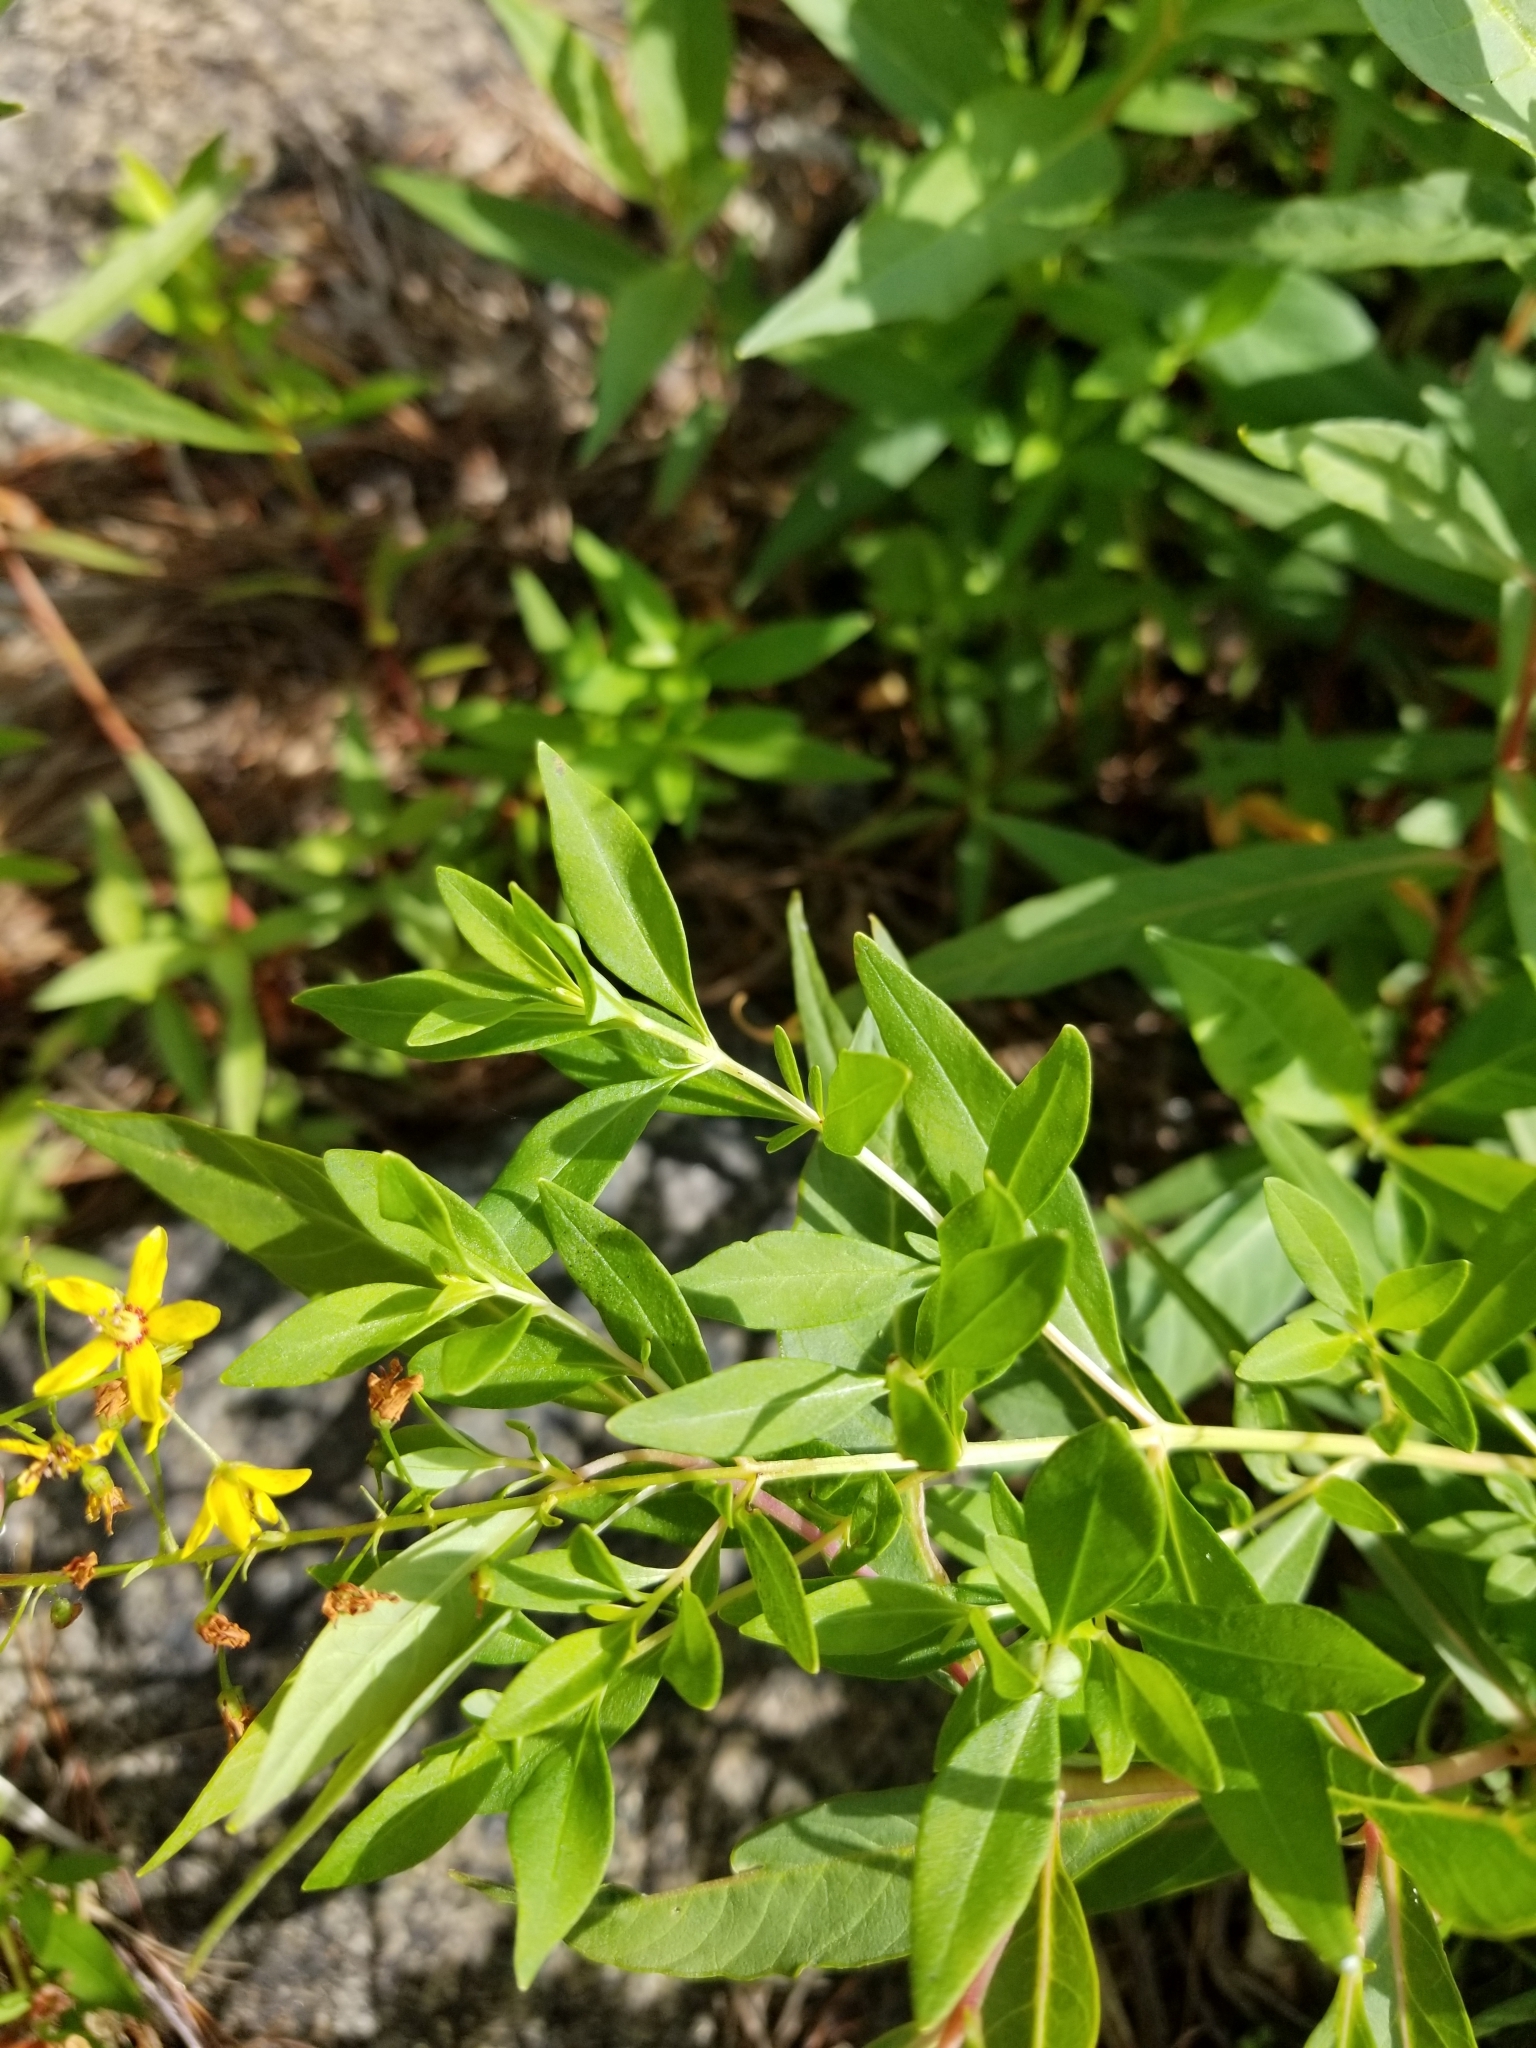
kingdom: Plantae
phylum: Tracheophyta
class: Magnoliopsida
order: Ericales
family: Primulaceae
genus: Lysimachia
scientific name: Lysimachia terrestris
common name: Lake loosestrife
